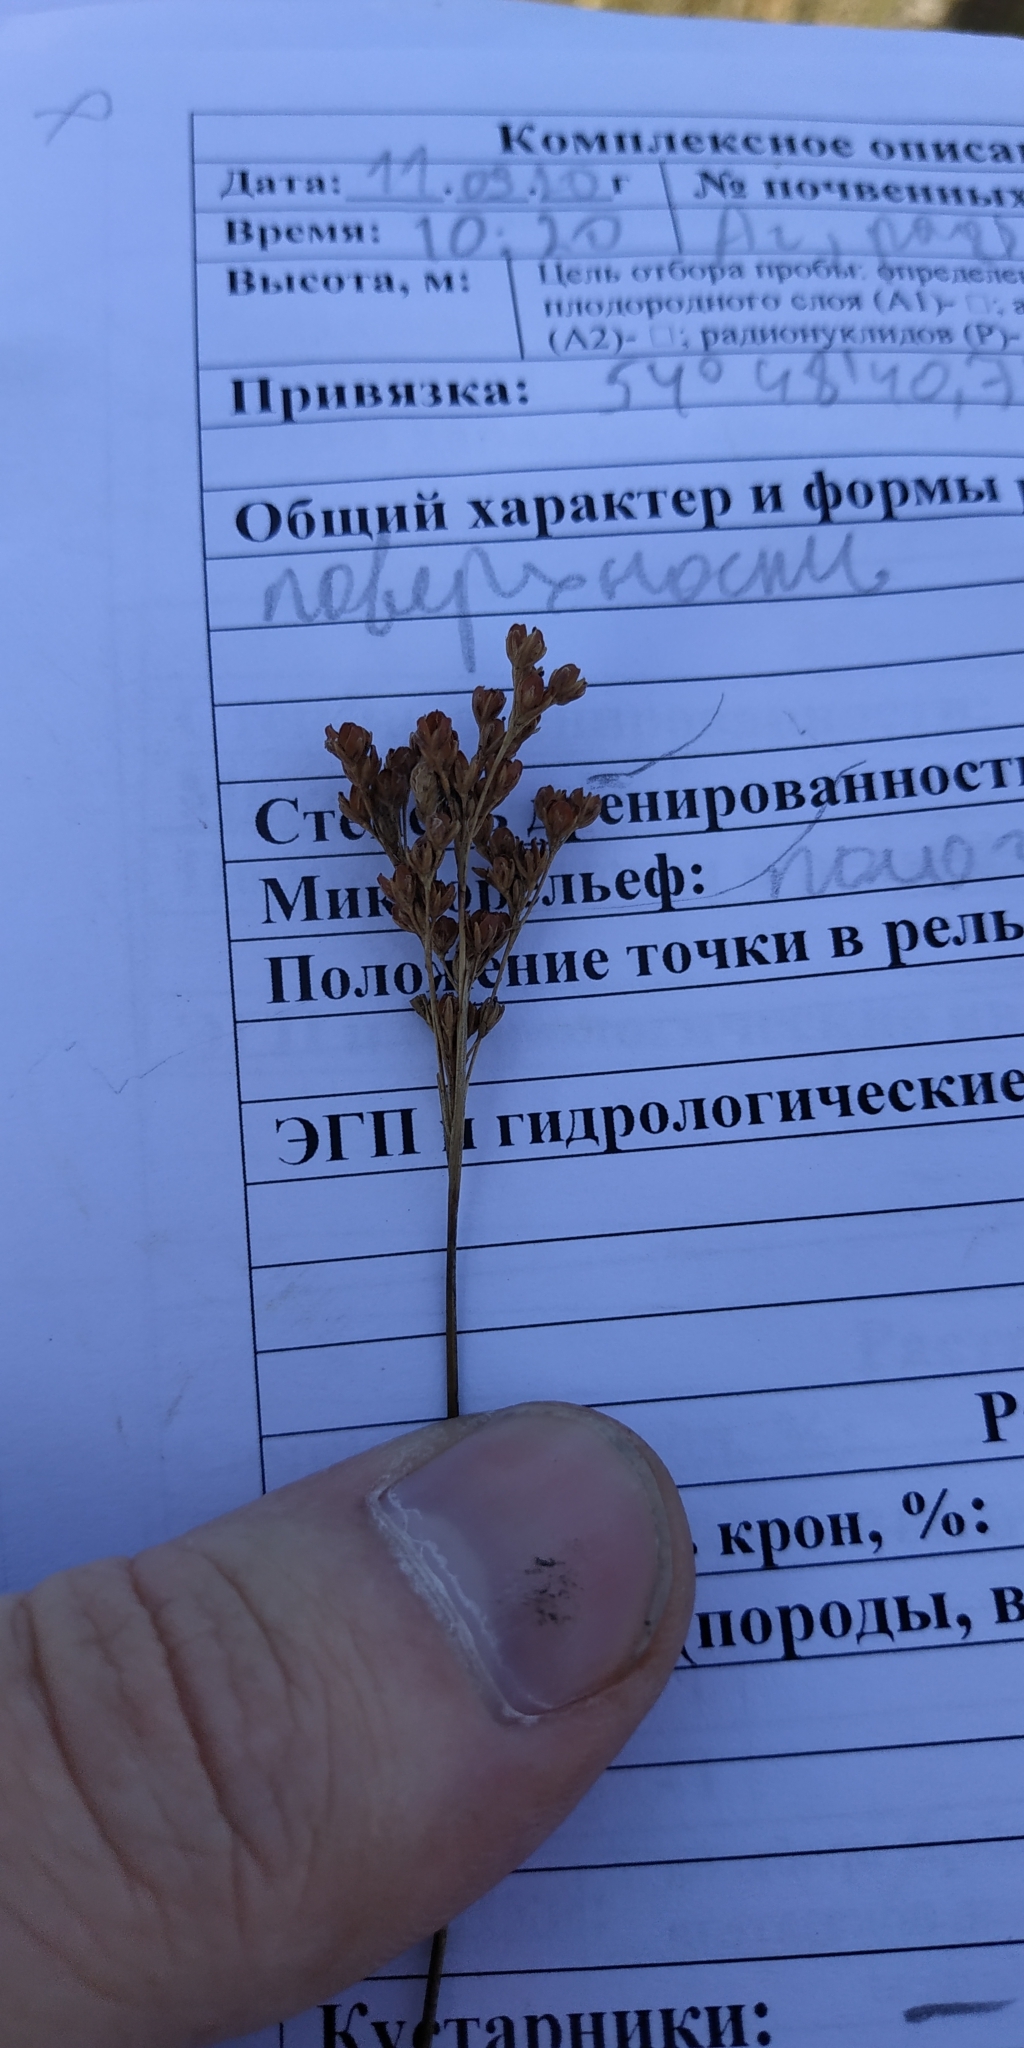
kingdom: Plantae
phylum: Tracheophyta
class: Liliopsida
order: Poales
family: Juncaceae
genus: Juncus
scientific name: Juncus compressus
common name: Round-fruited rush
